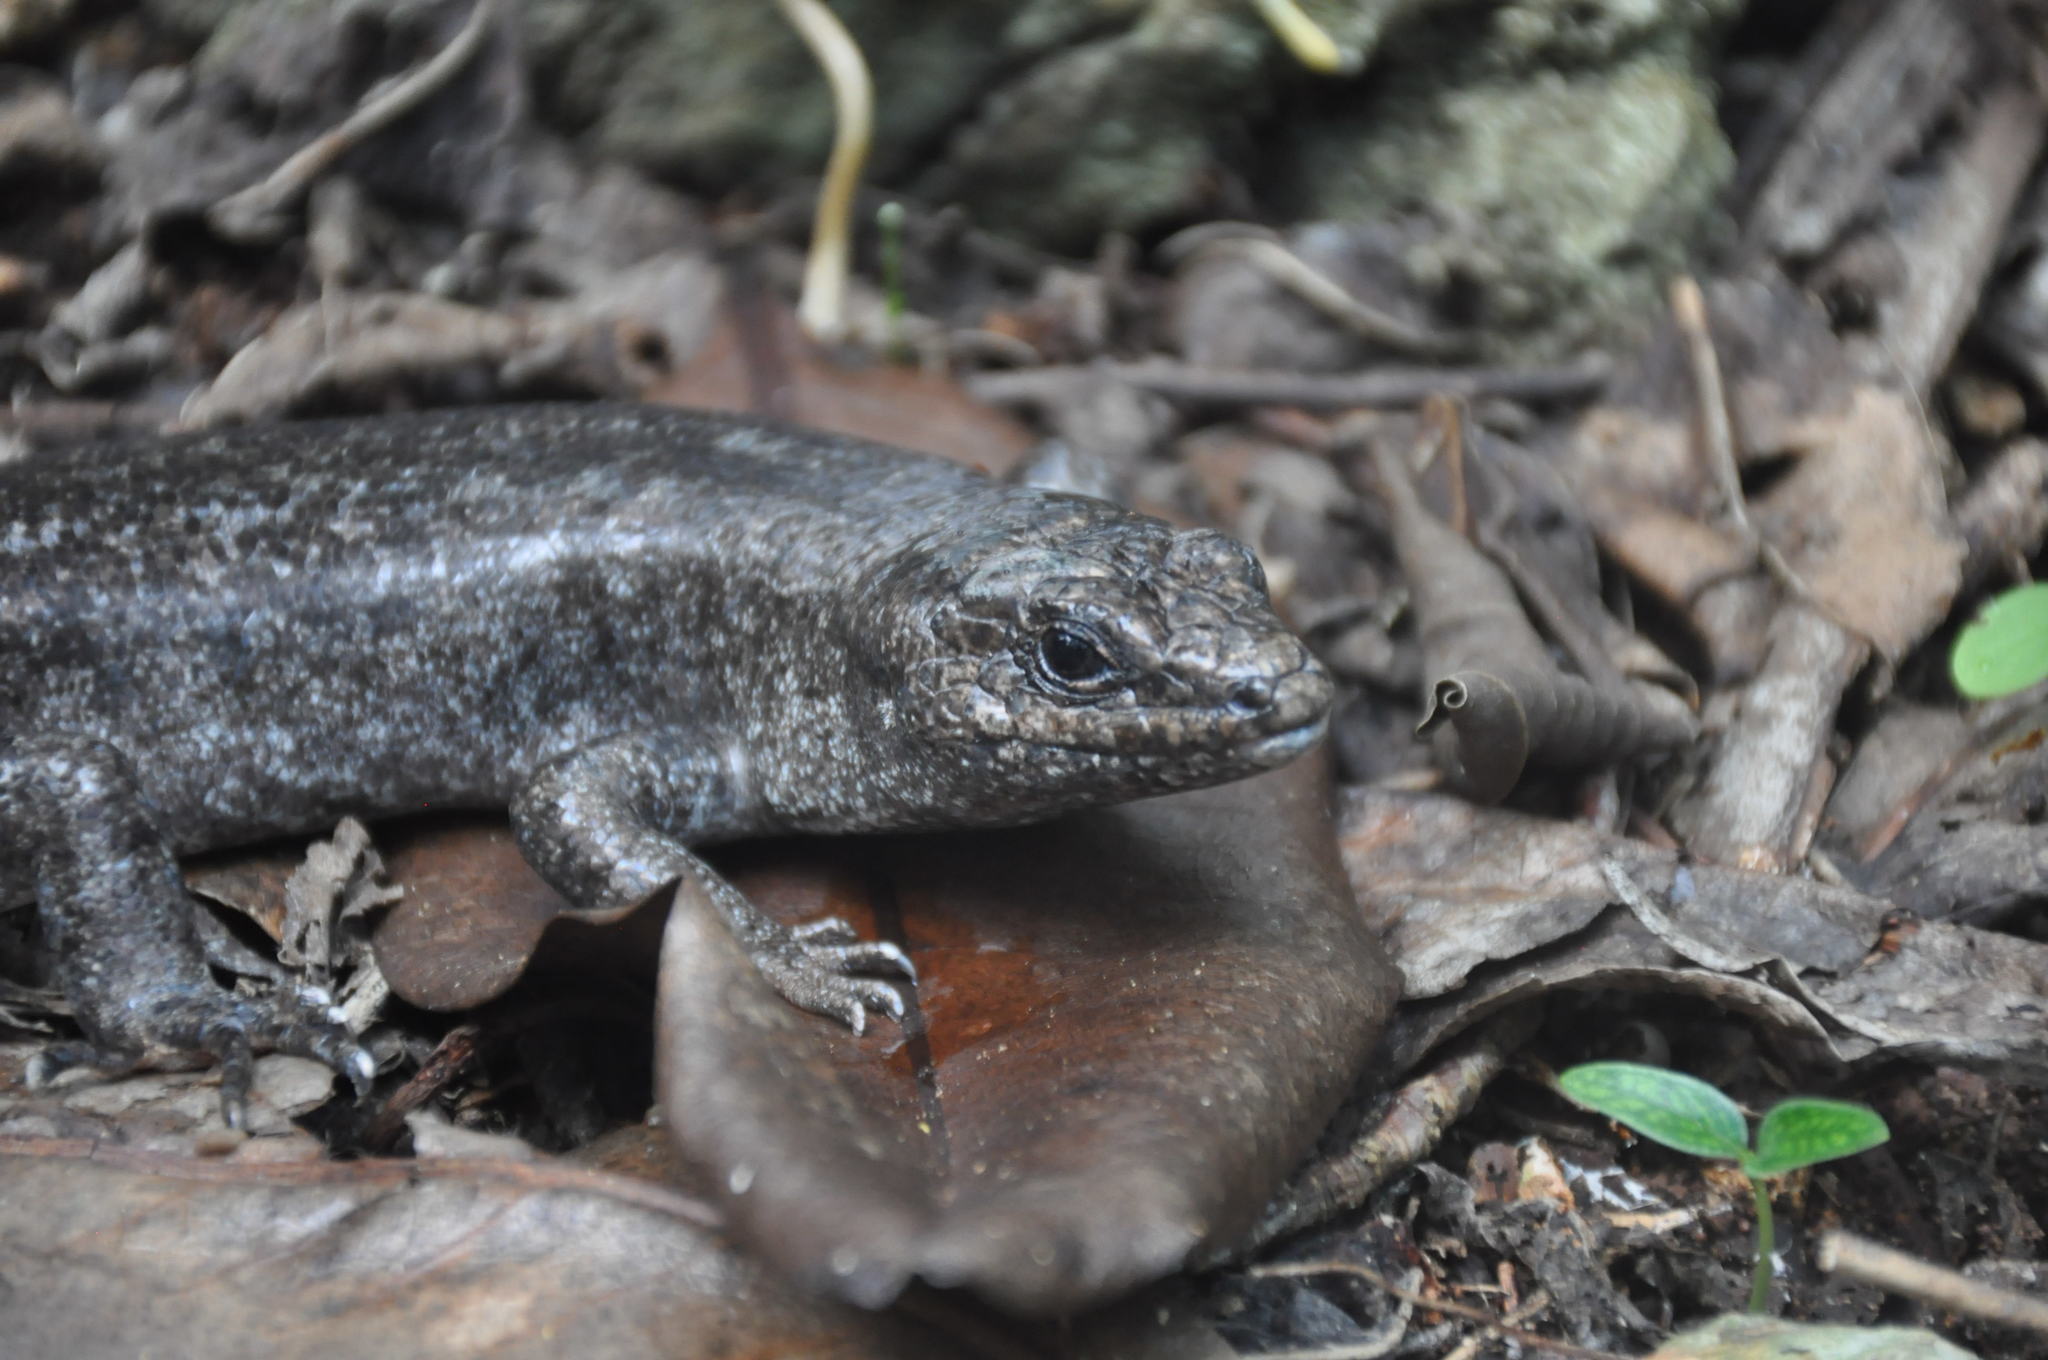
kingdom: Animalia
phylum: Chordata
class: Squamata
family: Scincidae
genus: Leiolopisma
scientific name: Leiolopisma telfairii
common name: Round island skink
